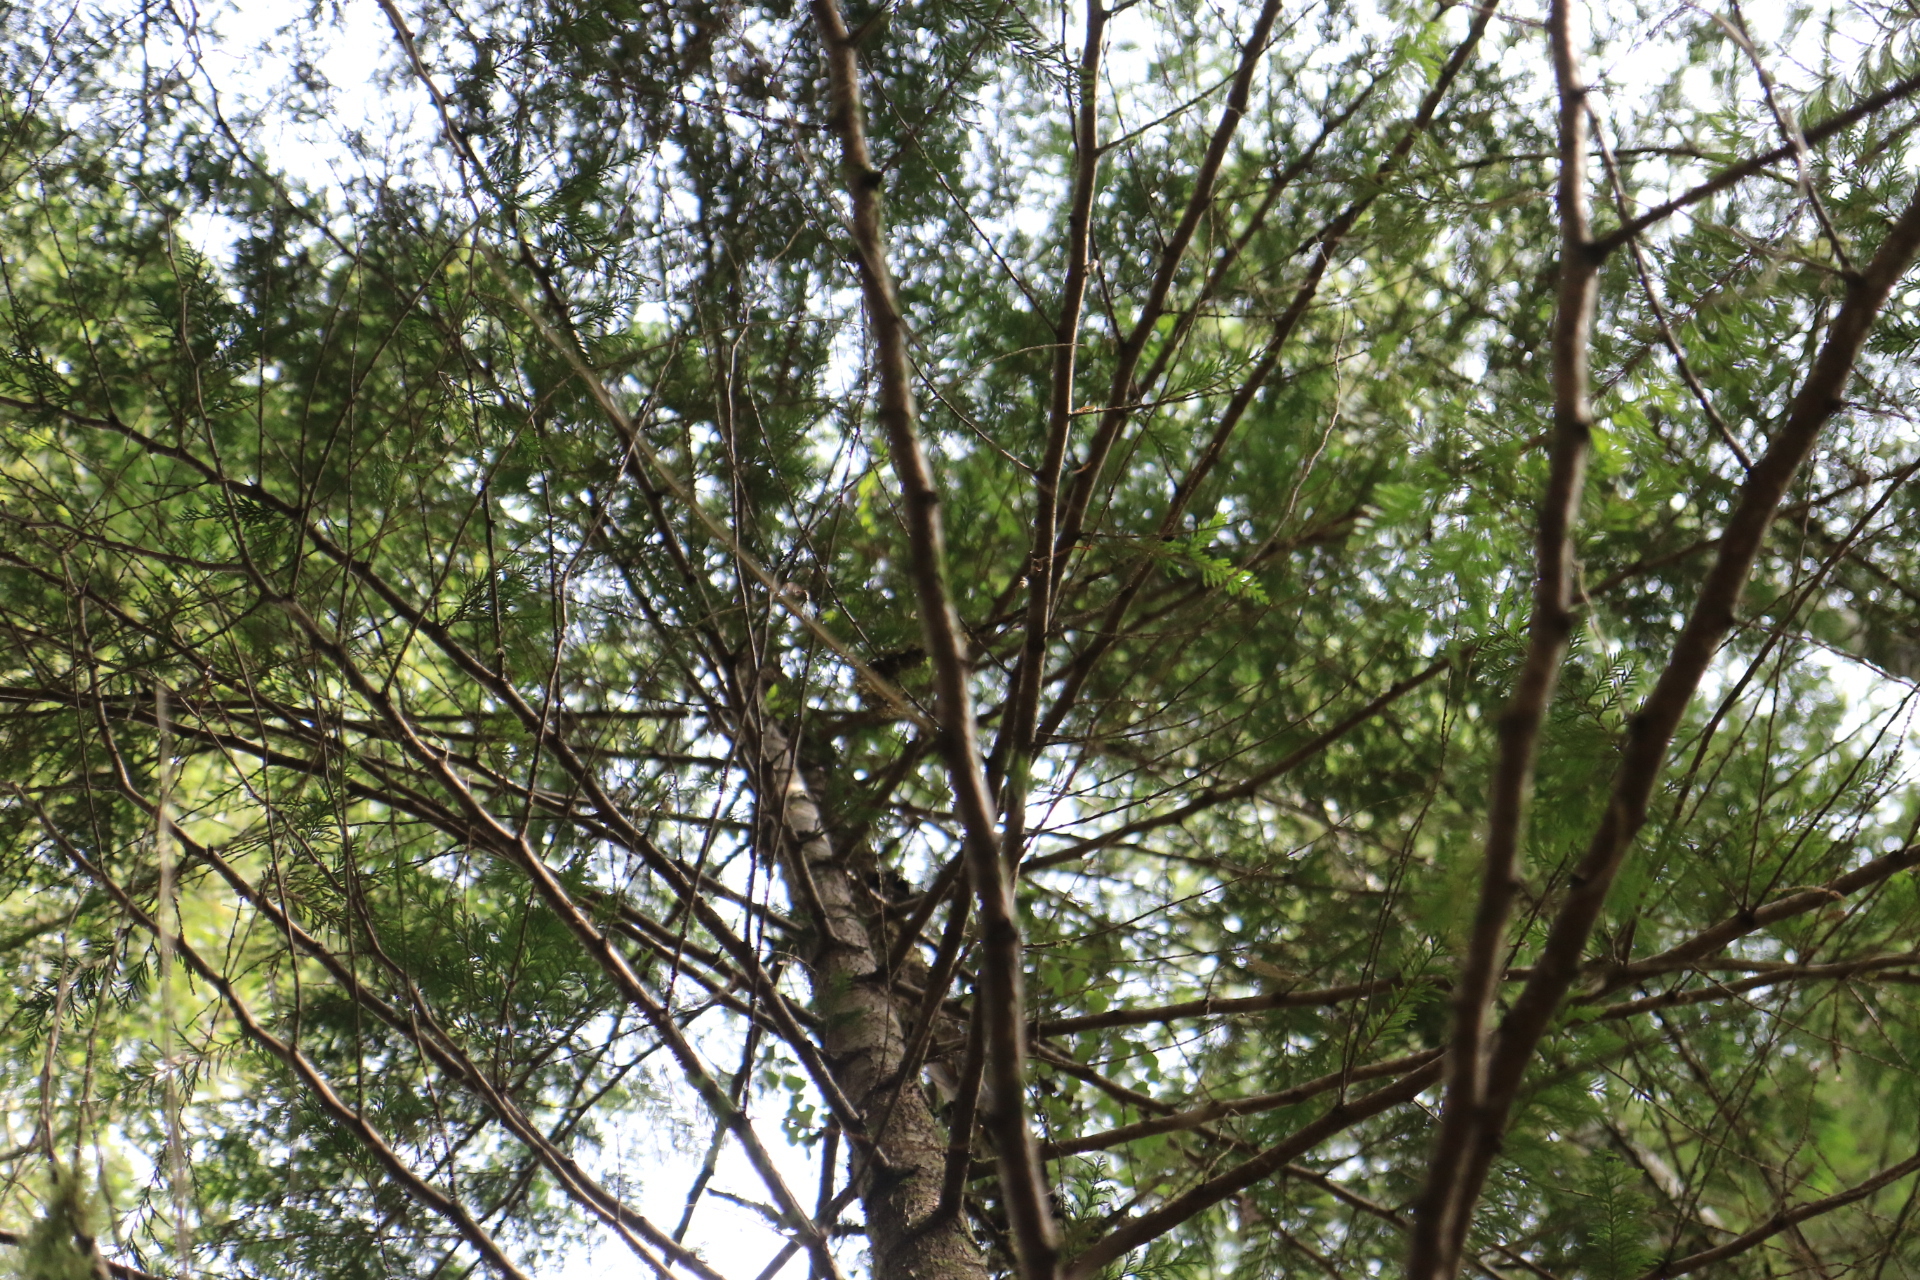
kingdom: Plantae
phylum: Tracheophyta
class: Pinopsida
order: Pinales
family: Cupressaceae
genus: Thuja
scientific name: Thuja plicata
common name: Western red-cedar
